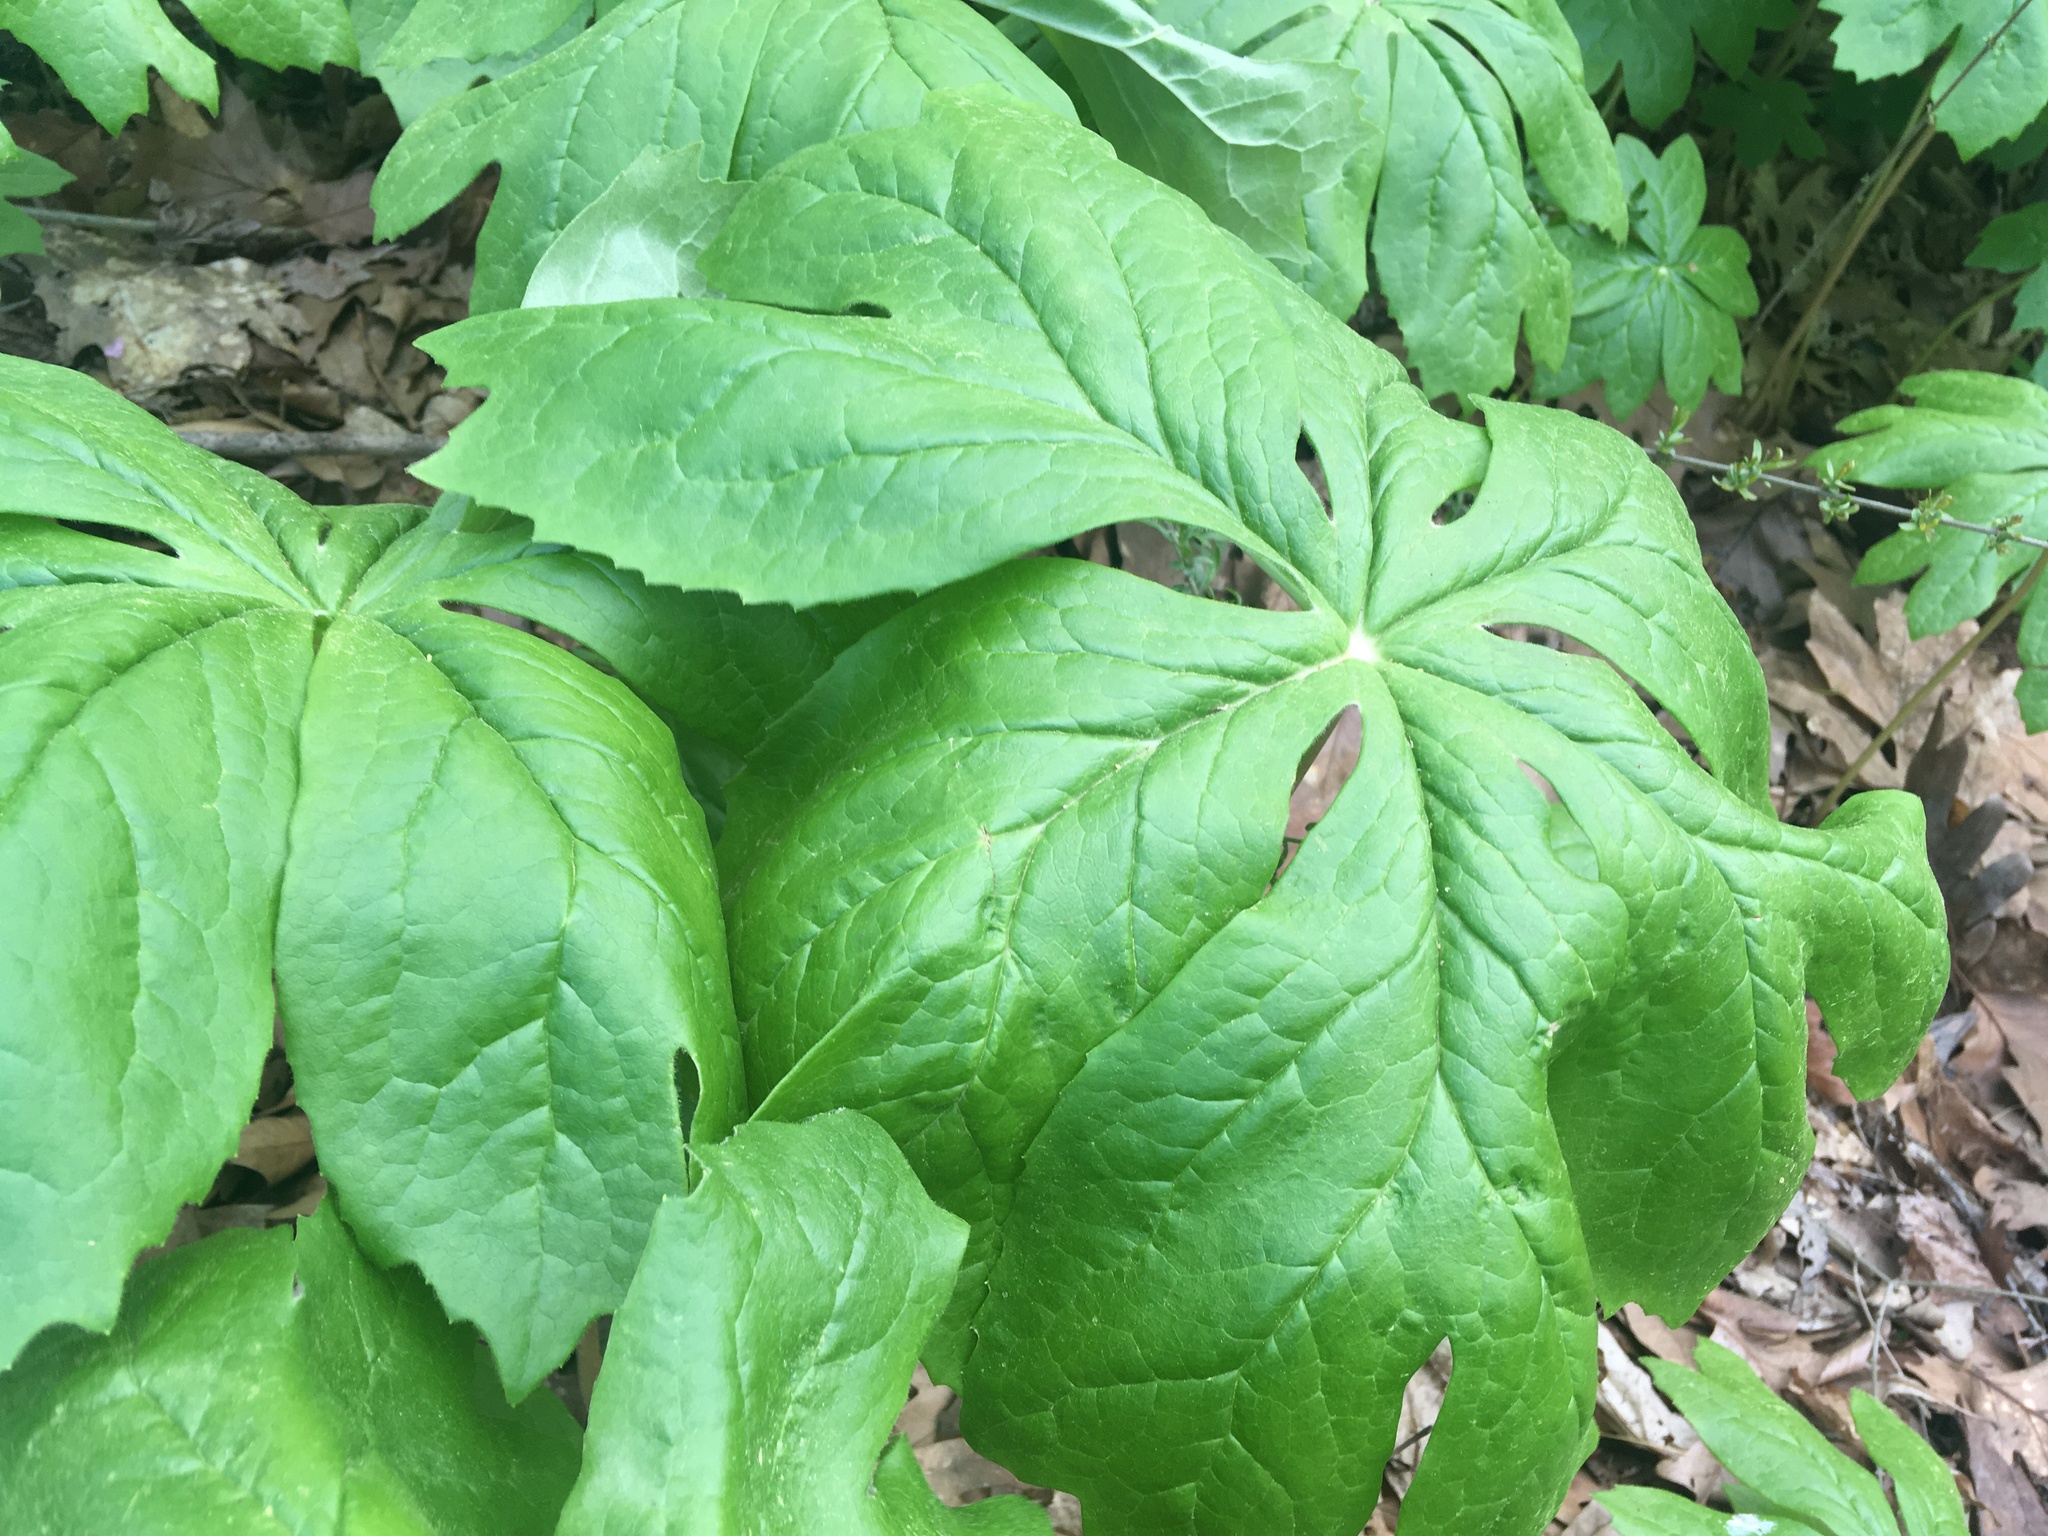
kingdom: Plantae
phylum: Tracheophyta
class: Magnoliopsida
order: Ranunculales
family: Berberidaceae
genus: Podophyllum
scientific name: Podophyllum peltatum
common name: Wild mandrake
